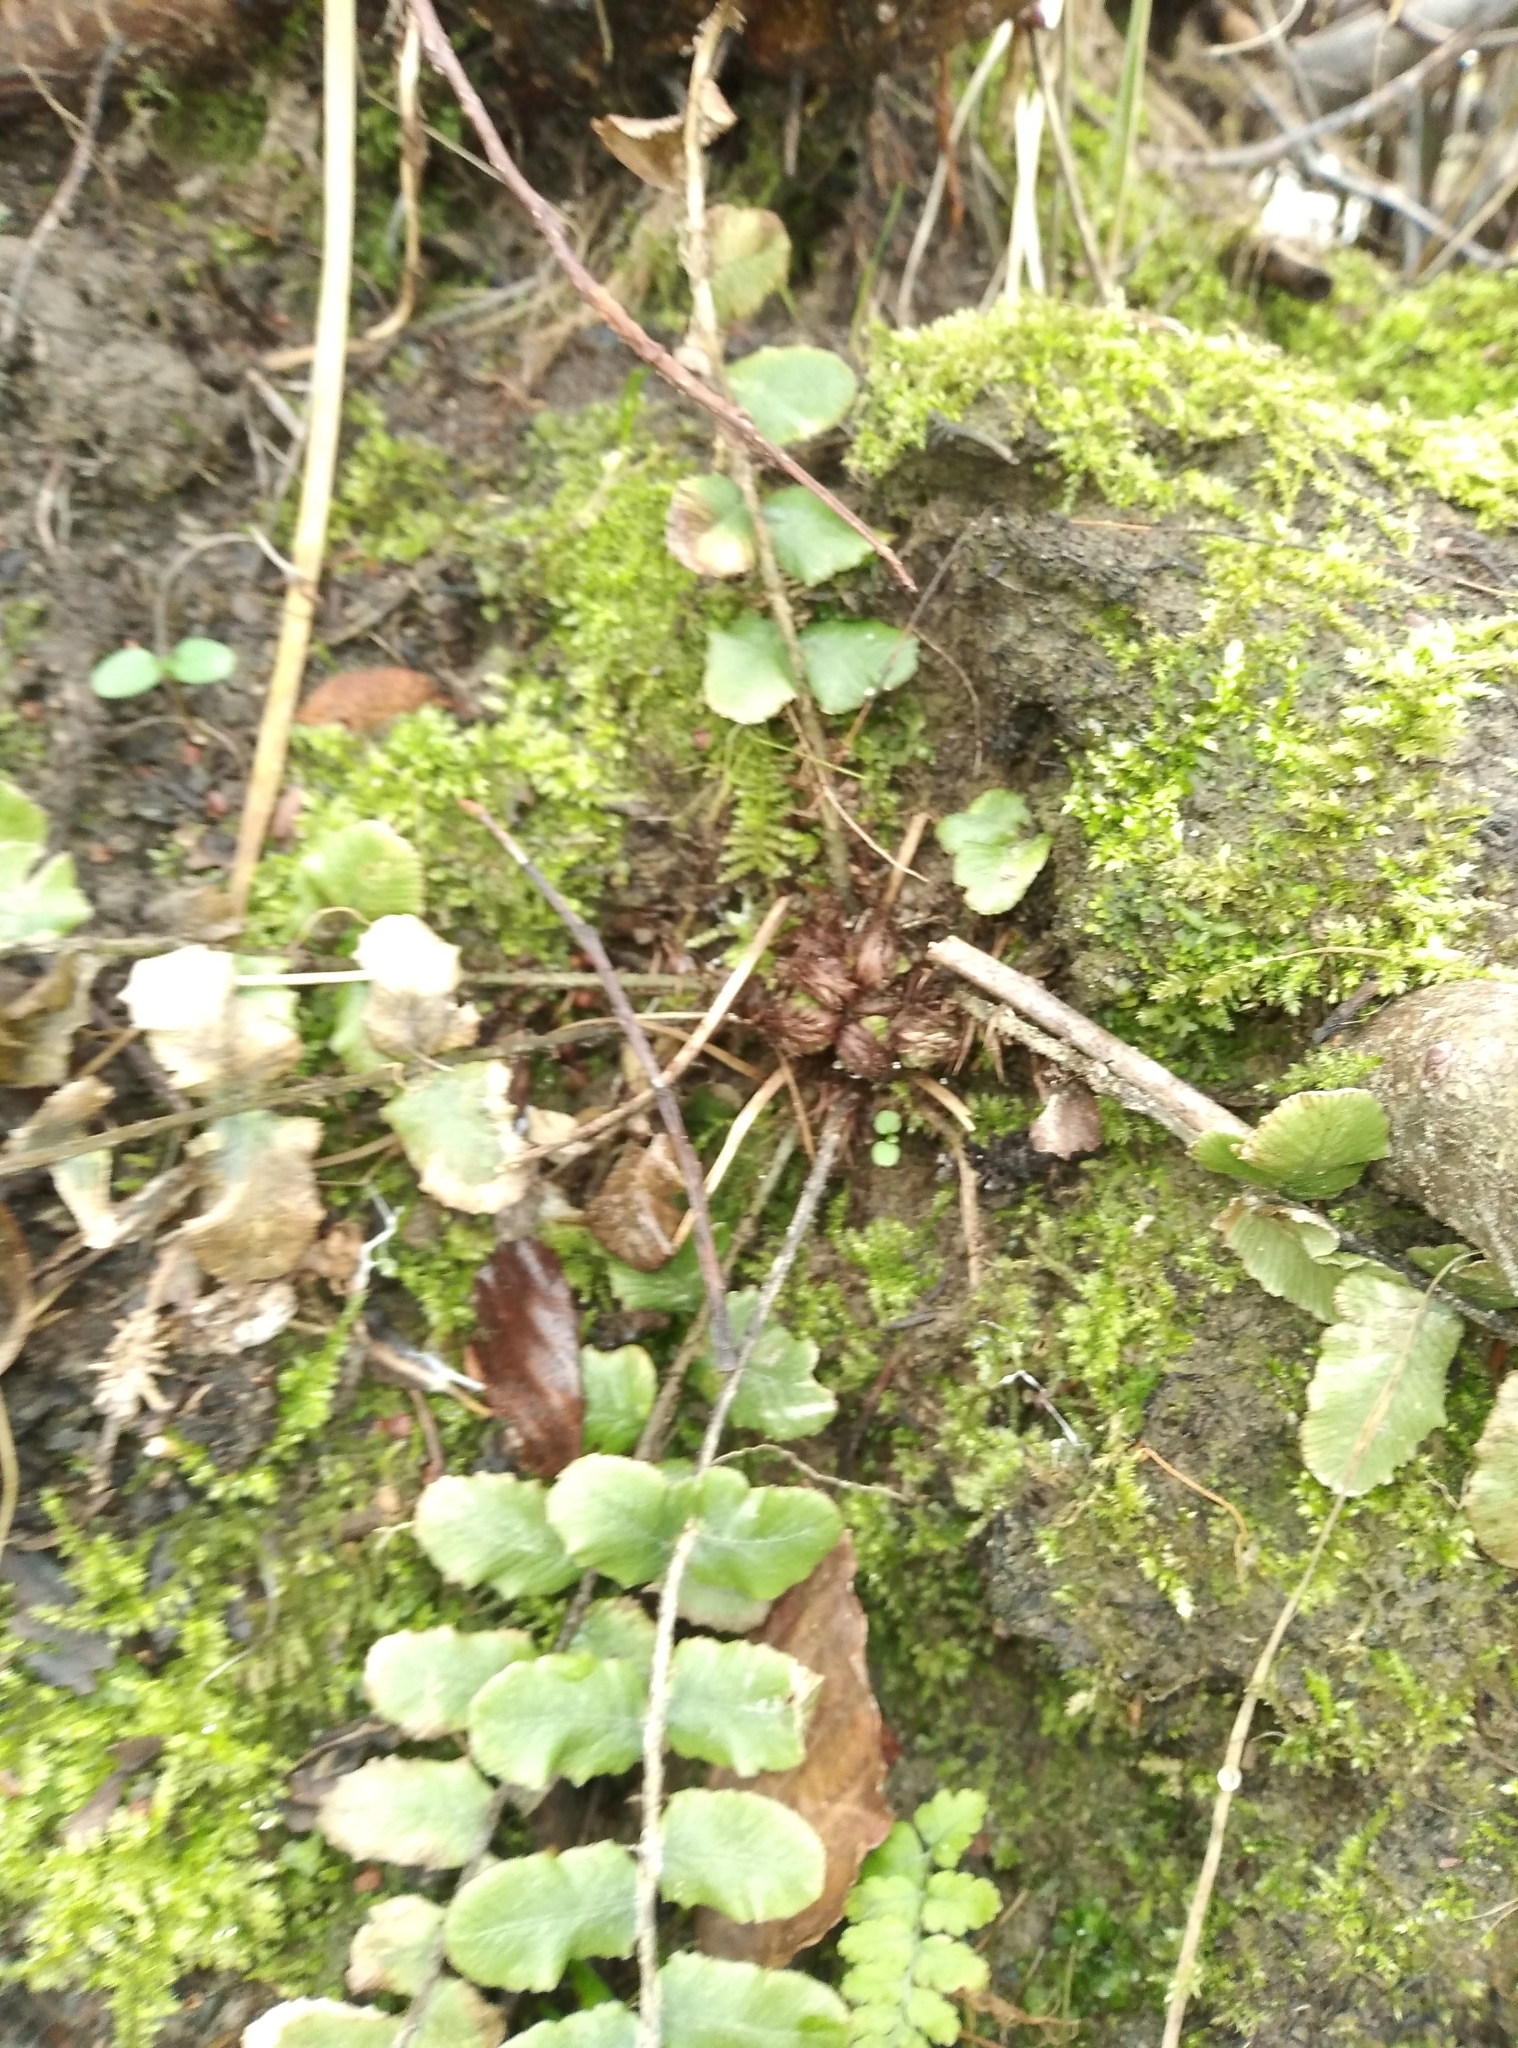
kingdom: Plantae
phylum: Tracheophyta
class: Polypodiopsida
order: Polypodiales
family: Blechnaceae
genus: Cranfillia
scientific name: Cranfillia fluviatilis
